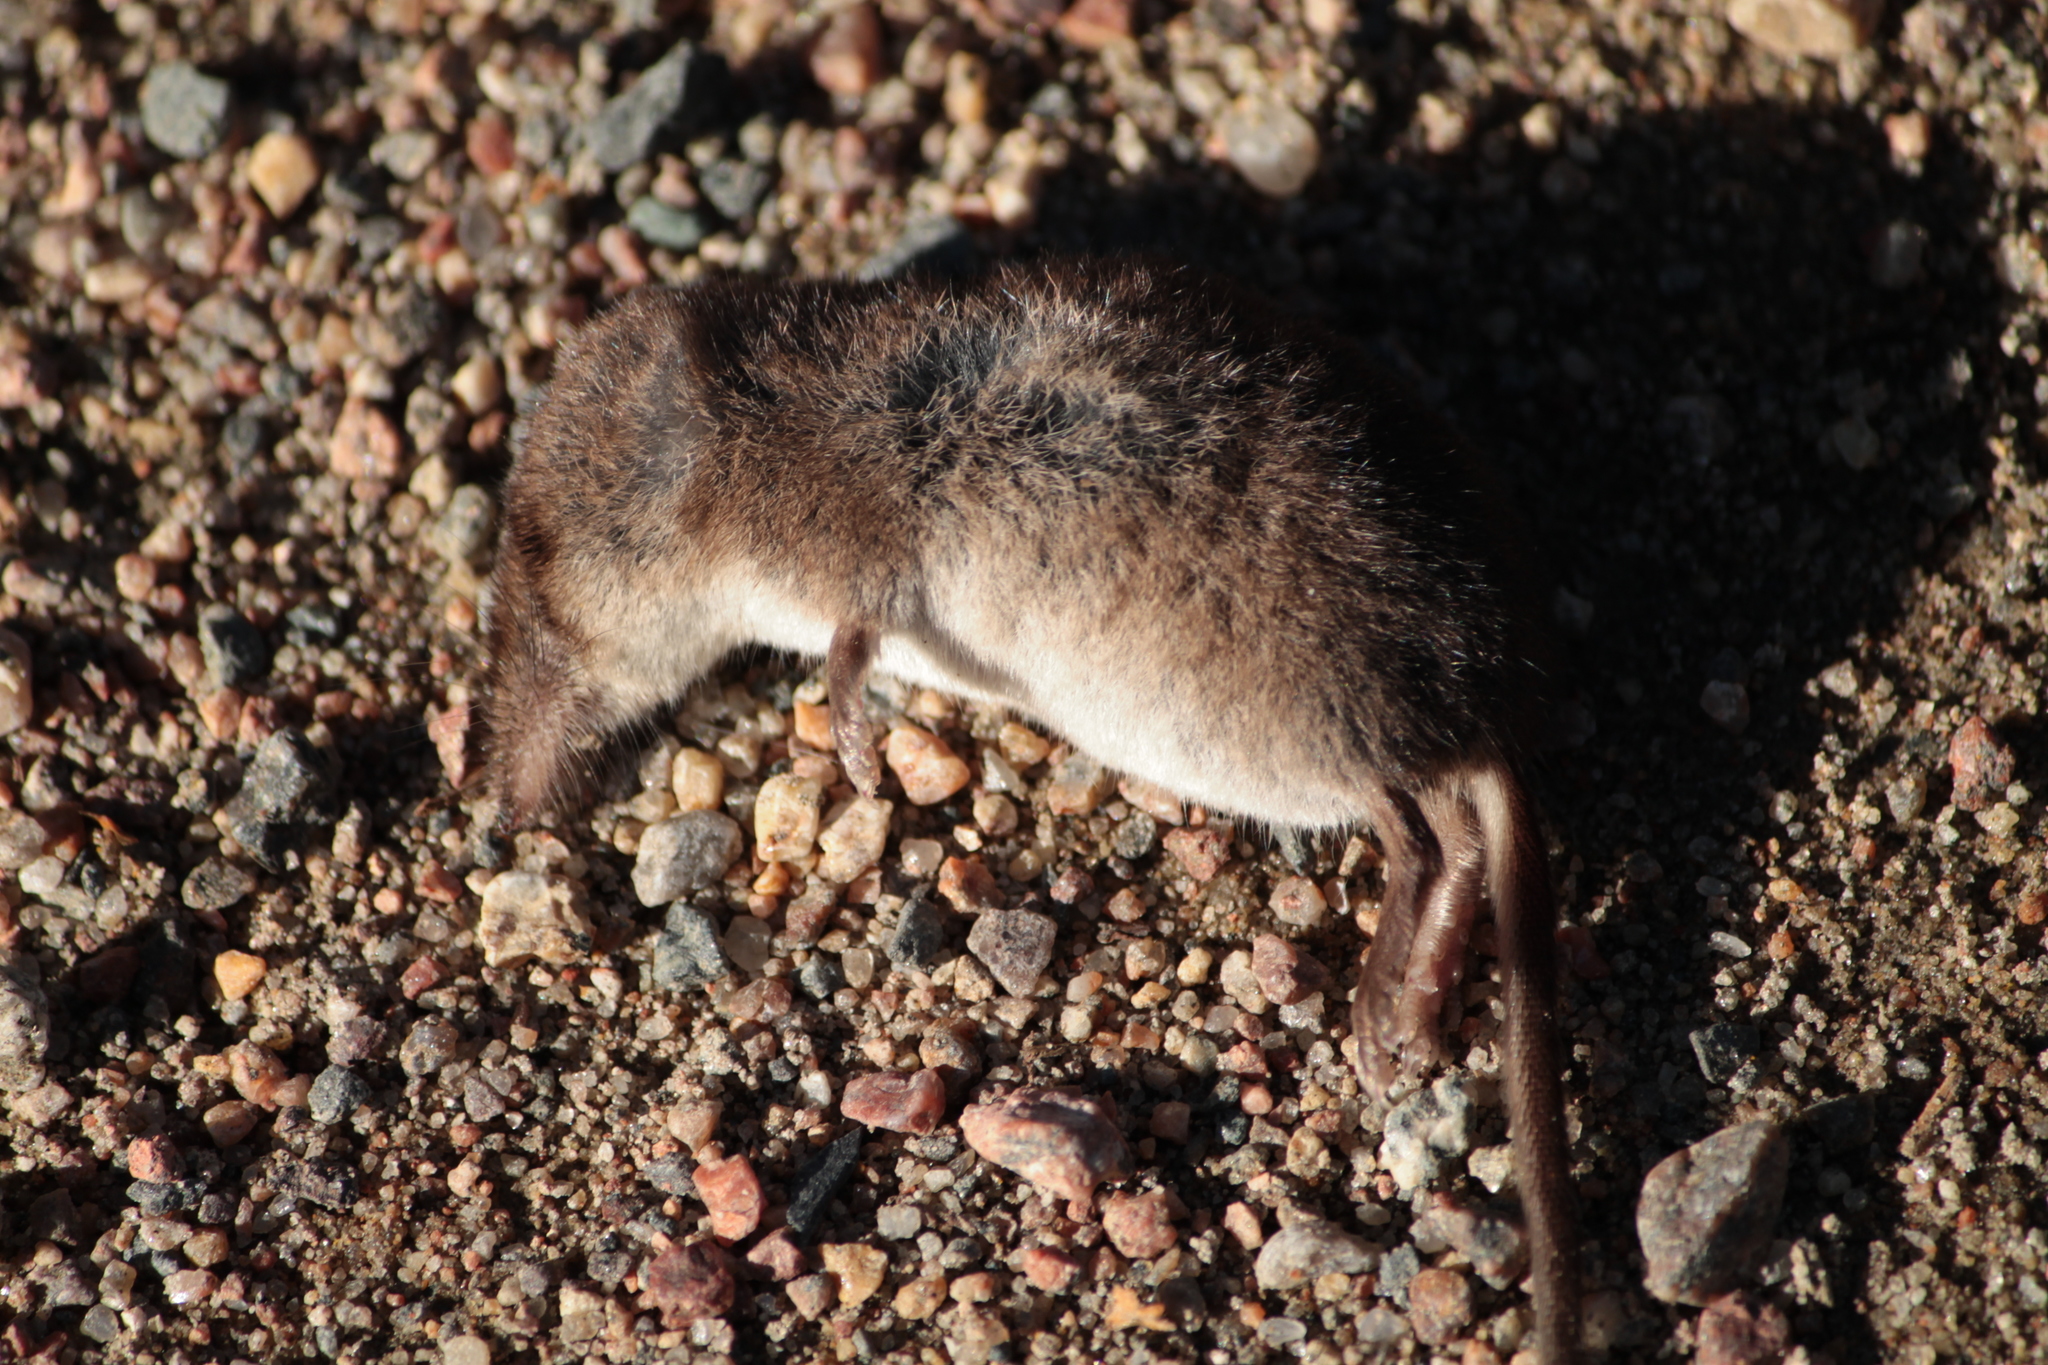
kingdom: Animalia
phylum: Chordata
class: Mammalia
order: Soricomorpha
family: Soricidae
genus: Sorex
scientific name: Sorex araneus
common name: Common shrew
